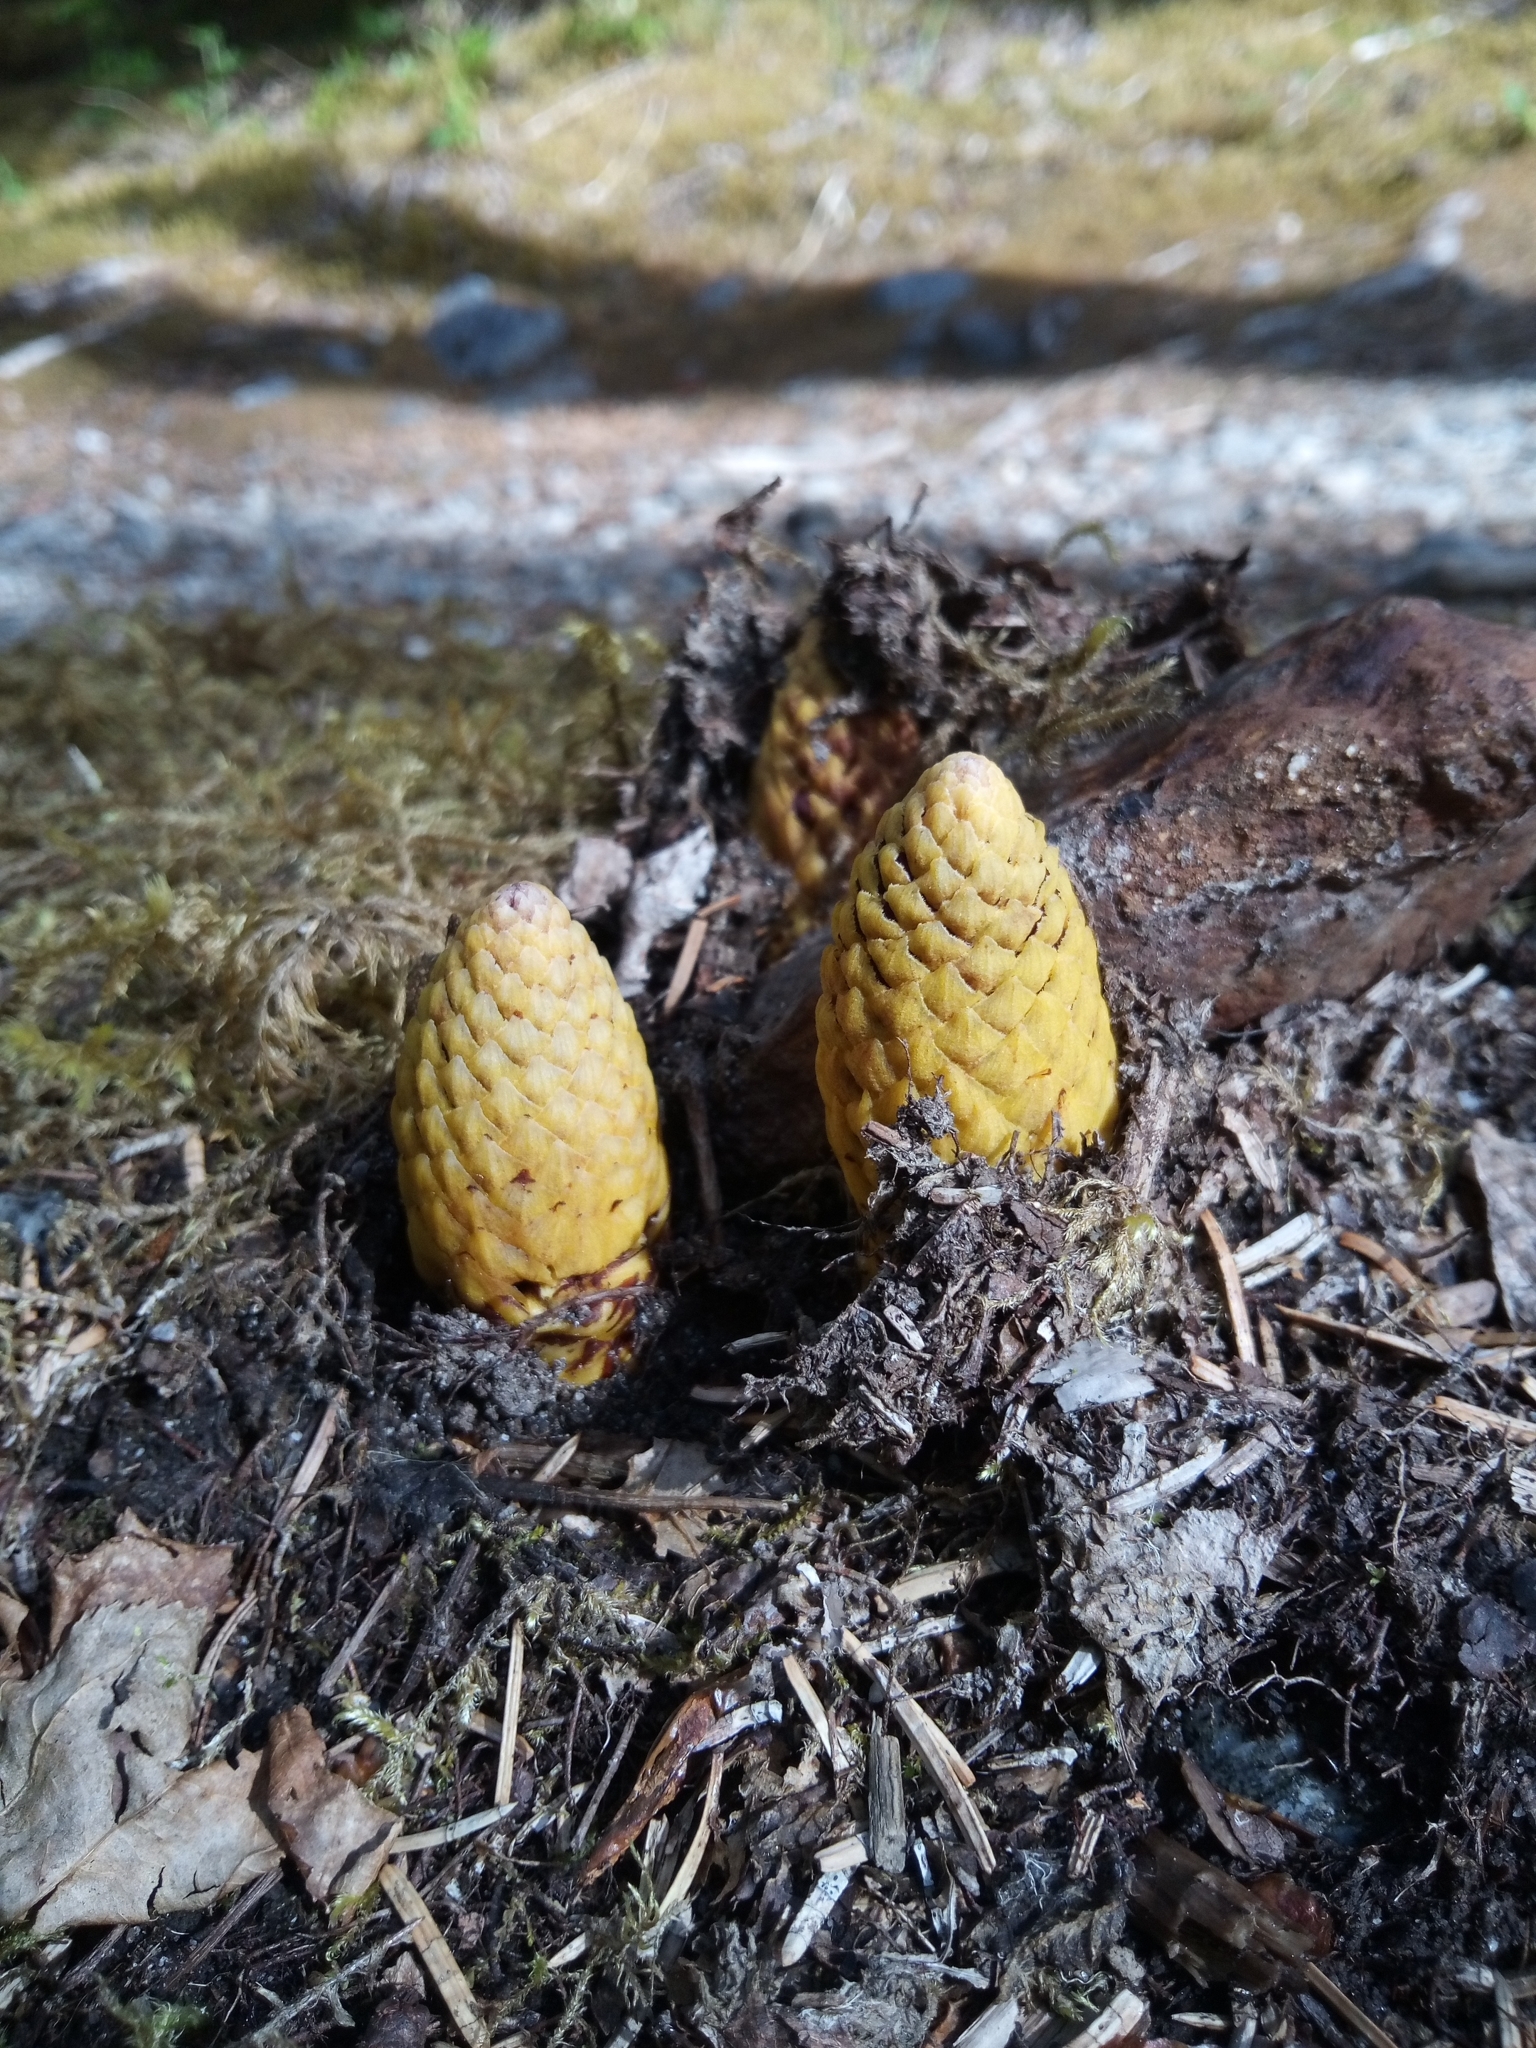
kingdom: Plantae
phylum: Tracheophyta
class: Magnoliopsida
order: Lamiales
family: Orobanchaceae
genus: Boschniakia
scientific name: Boschniakia rossica
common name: Poque
